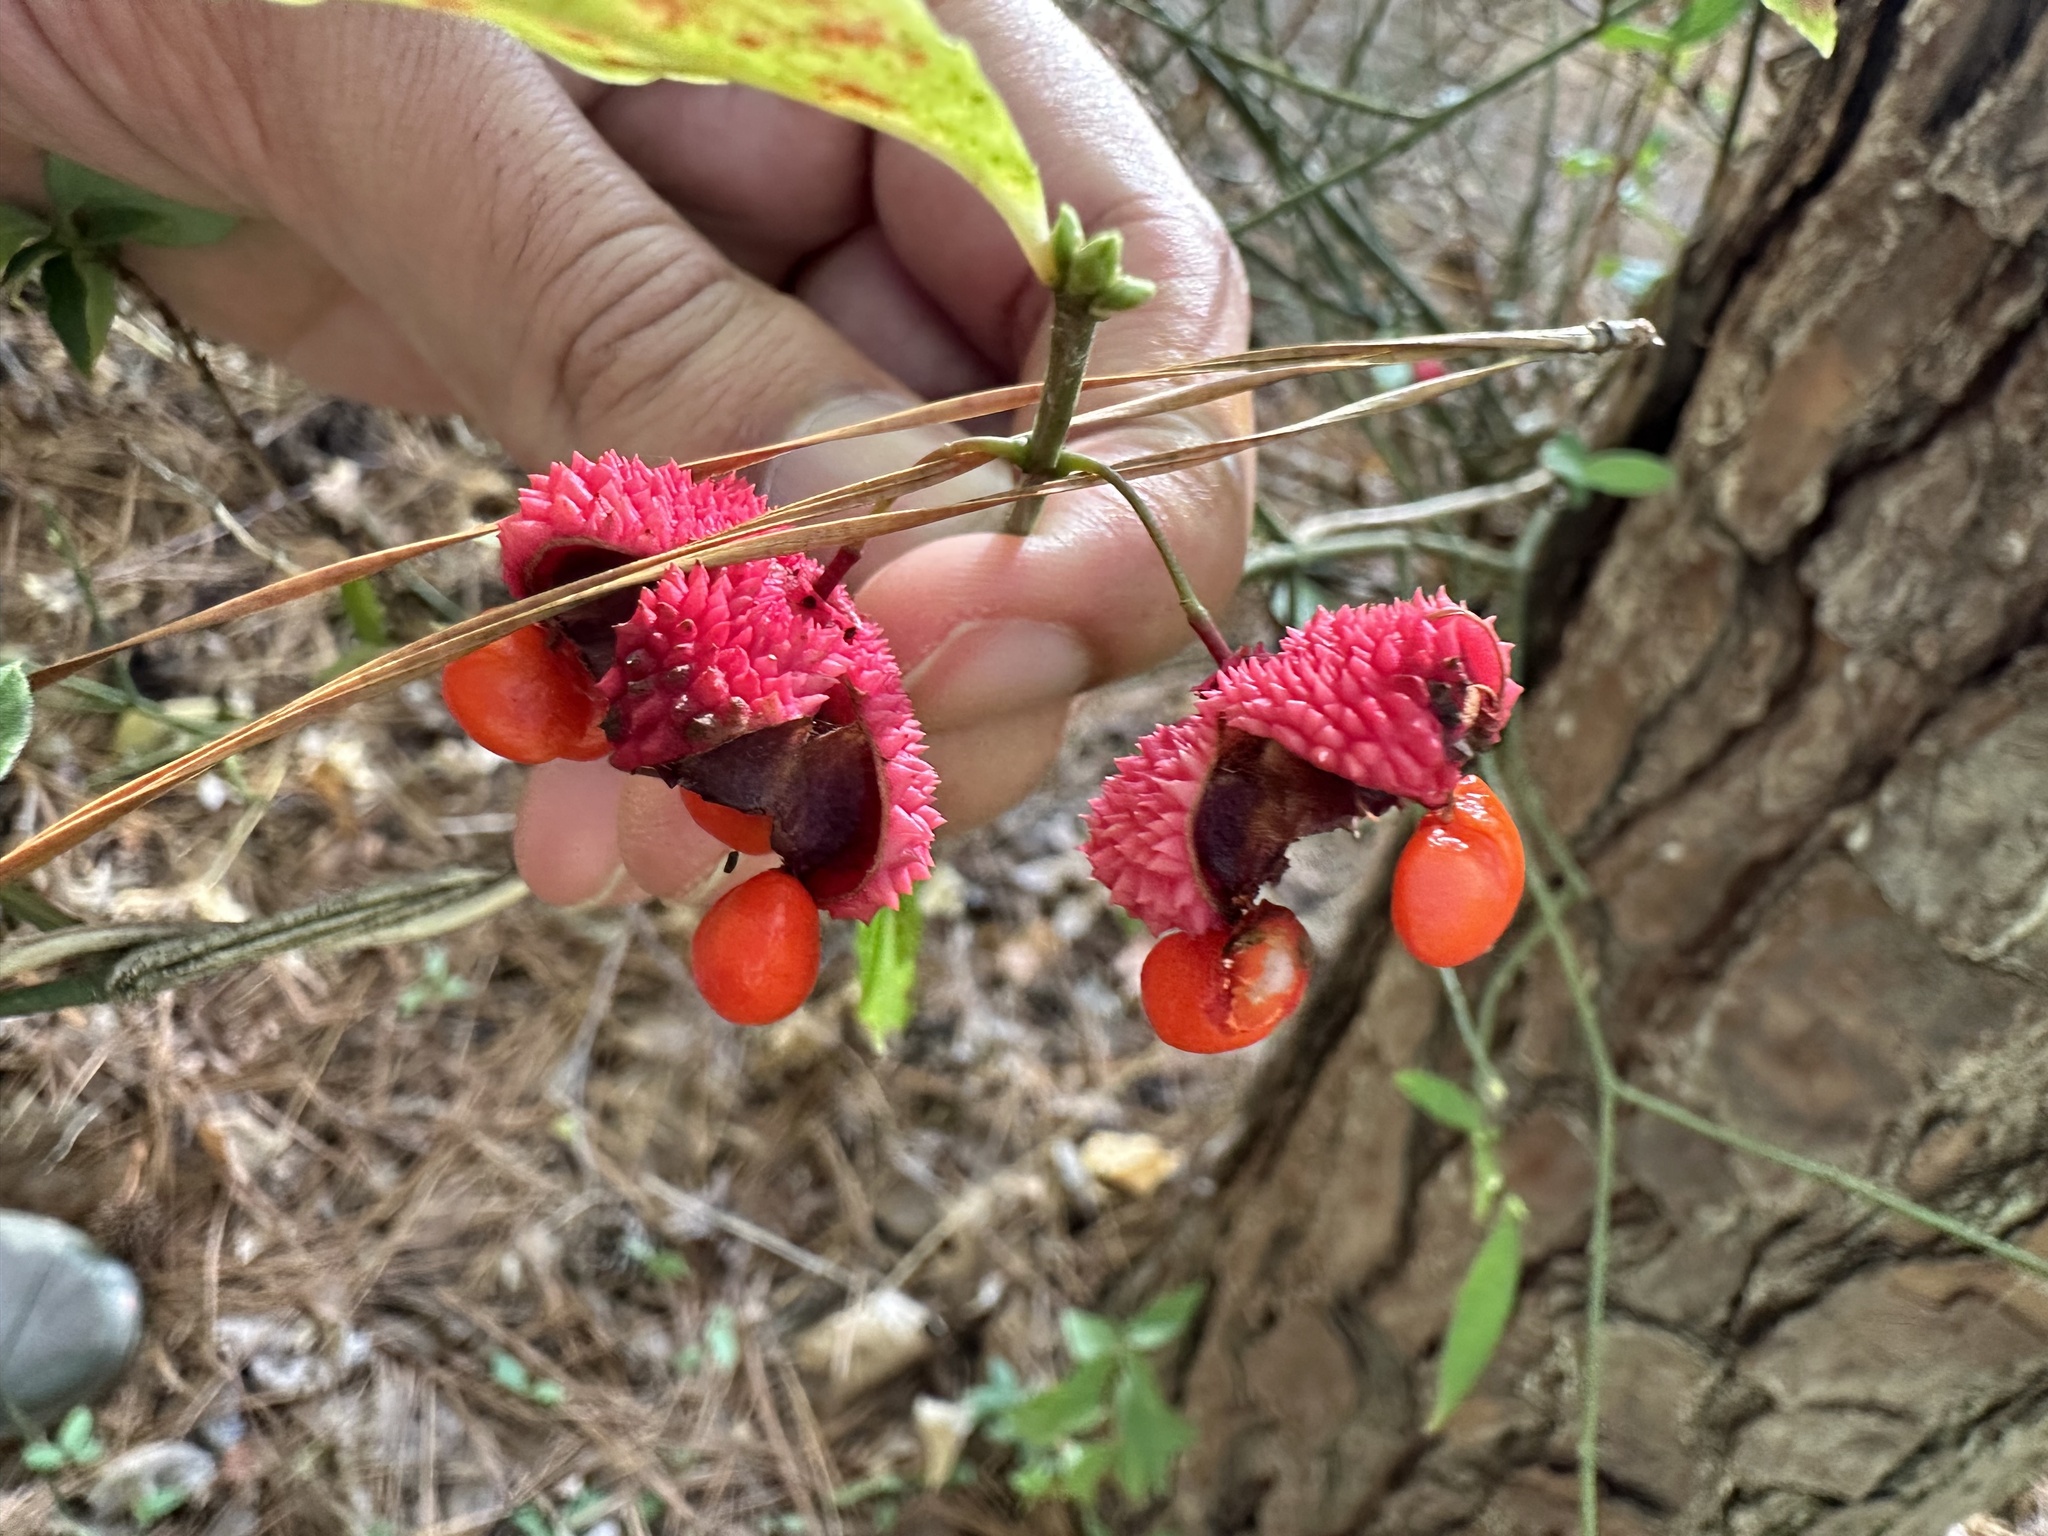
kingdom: Plantae
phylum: Tracheophyta
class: Magnoliopsida
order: Celastrales
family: Celastraceae
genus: Euonymus
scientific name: Euonymus americanus
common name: Bursting-heart
